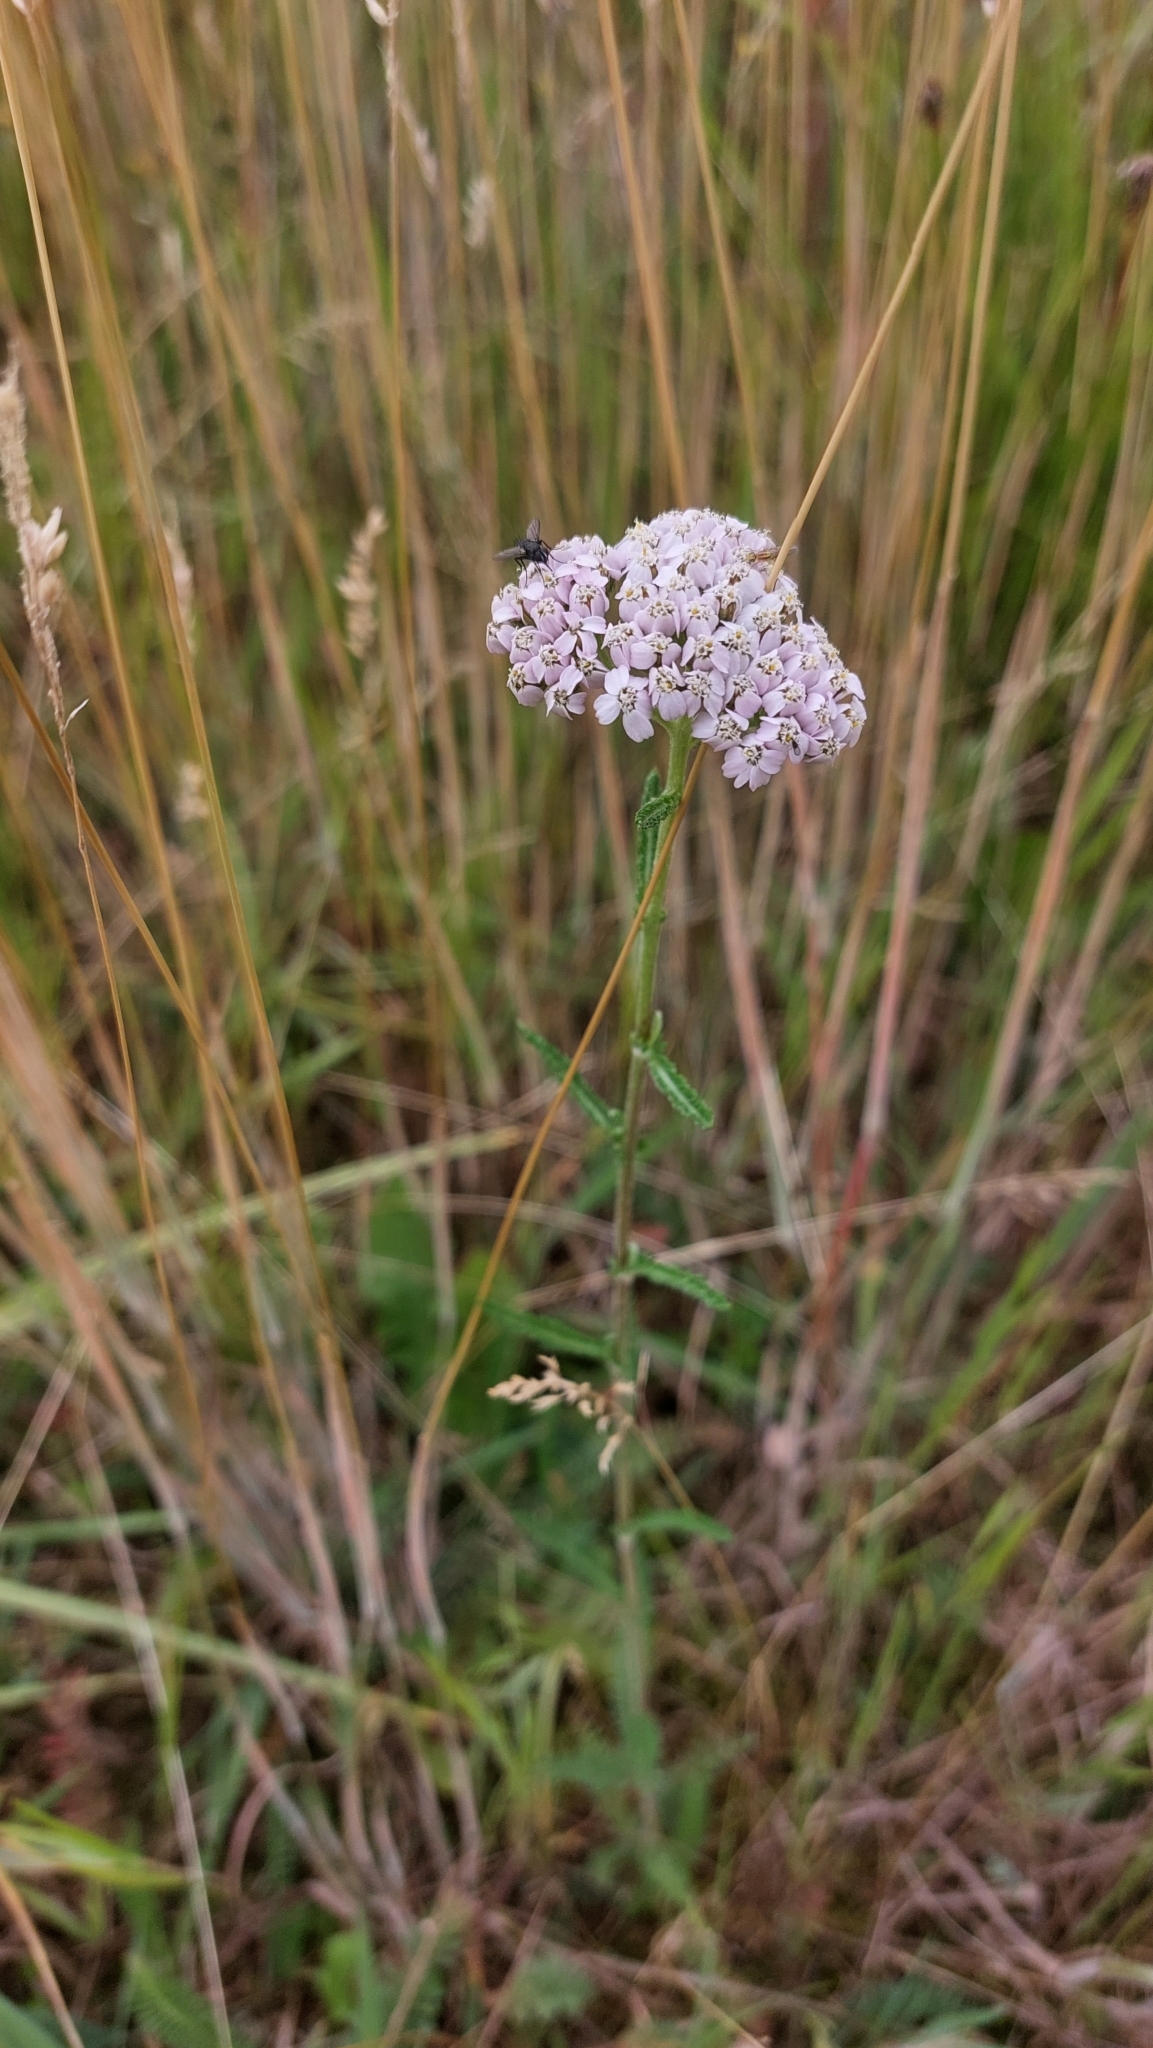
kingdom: Plantae
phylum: Tracheophyta
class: Magnoliopsida
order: Asterales
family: Asteraceae
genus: Achillea
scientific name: Achillea millefolium
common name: Yarrow
